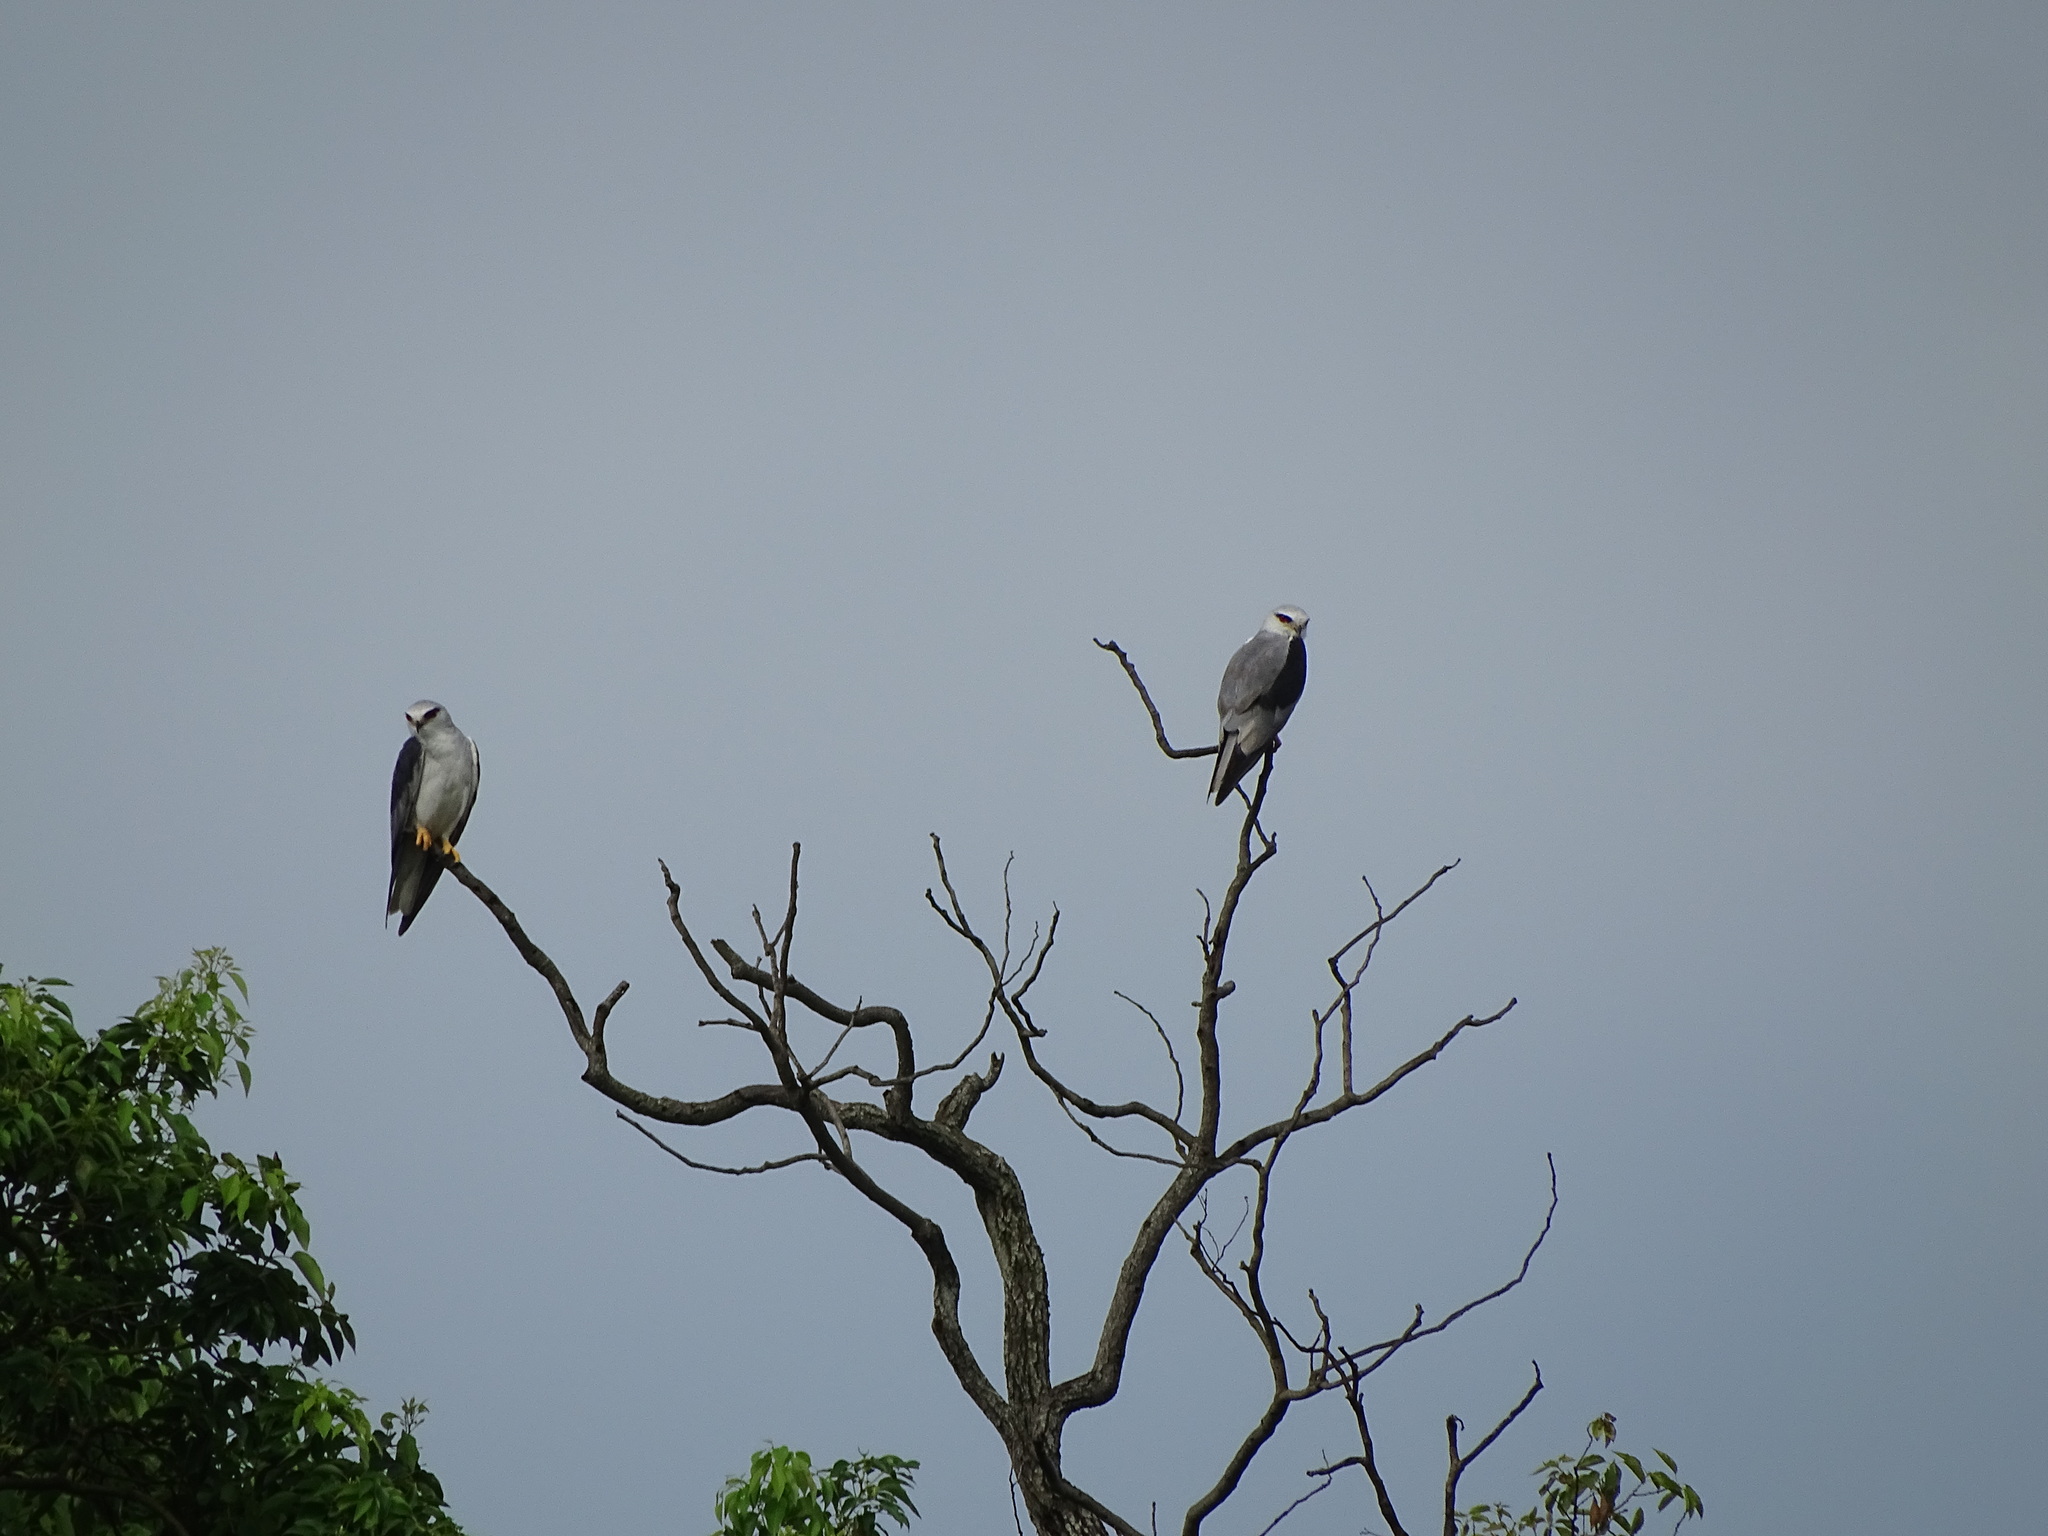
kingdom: Animalia
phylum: Chordata
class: Aves
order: Accipitriformes
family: Accipitridae
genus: Elanus
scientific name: Elanus caeruleus
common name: Black-winged kite
